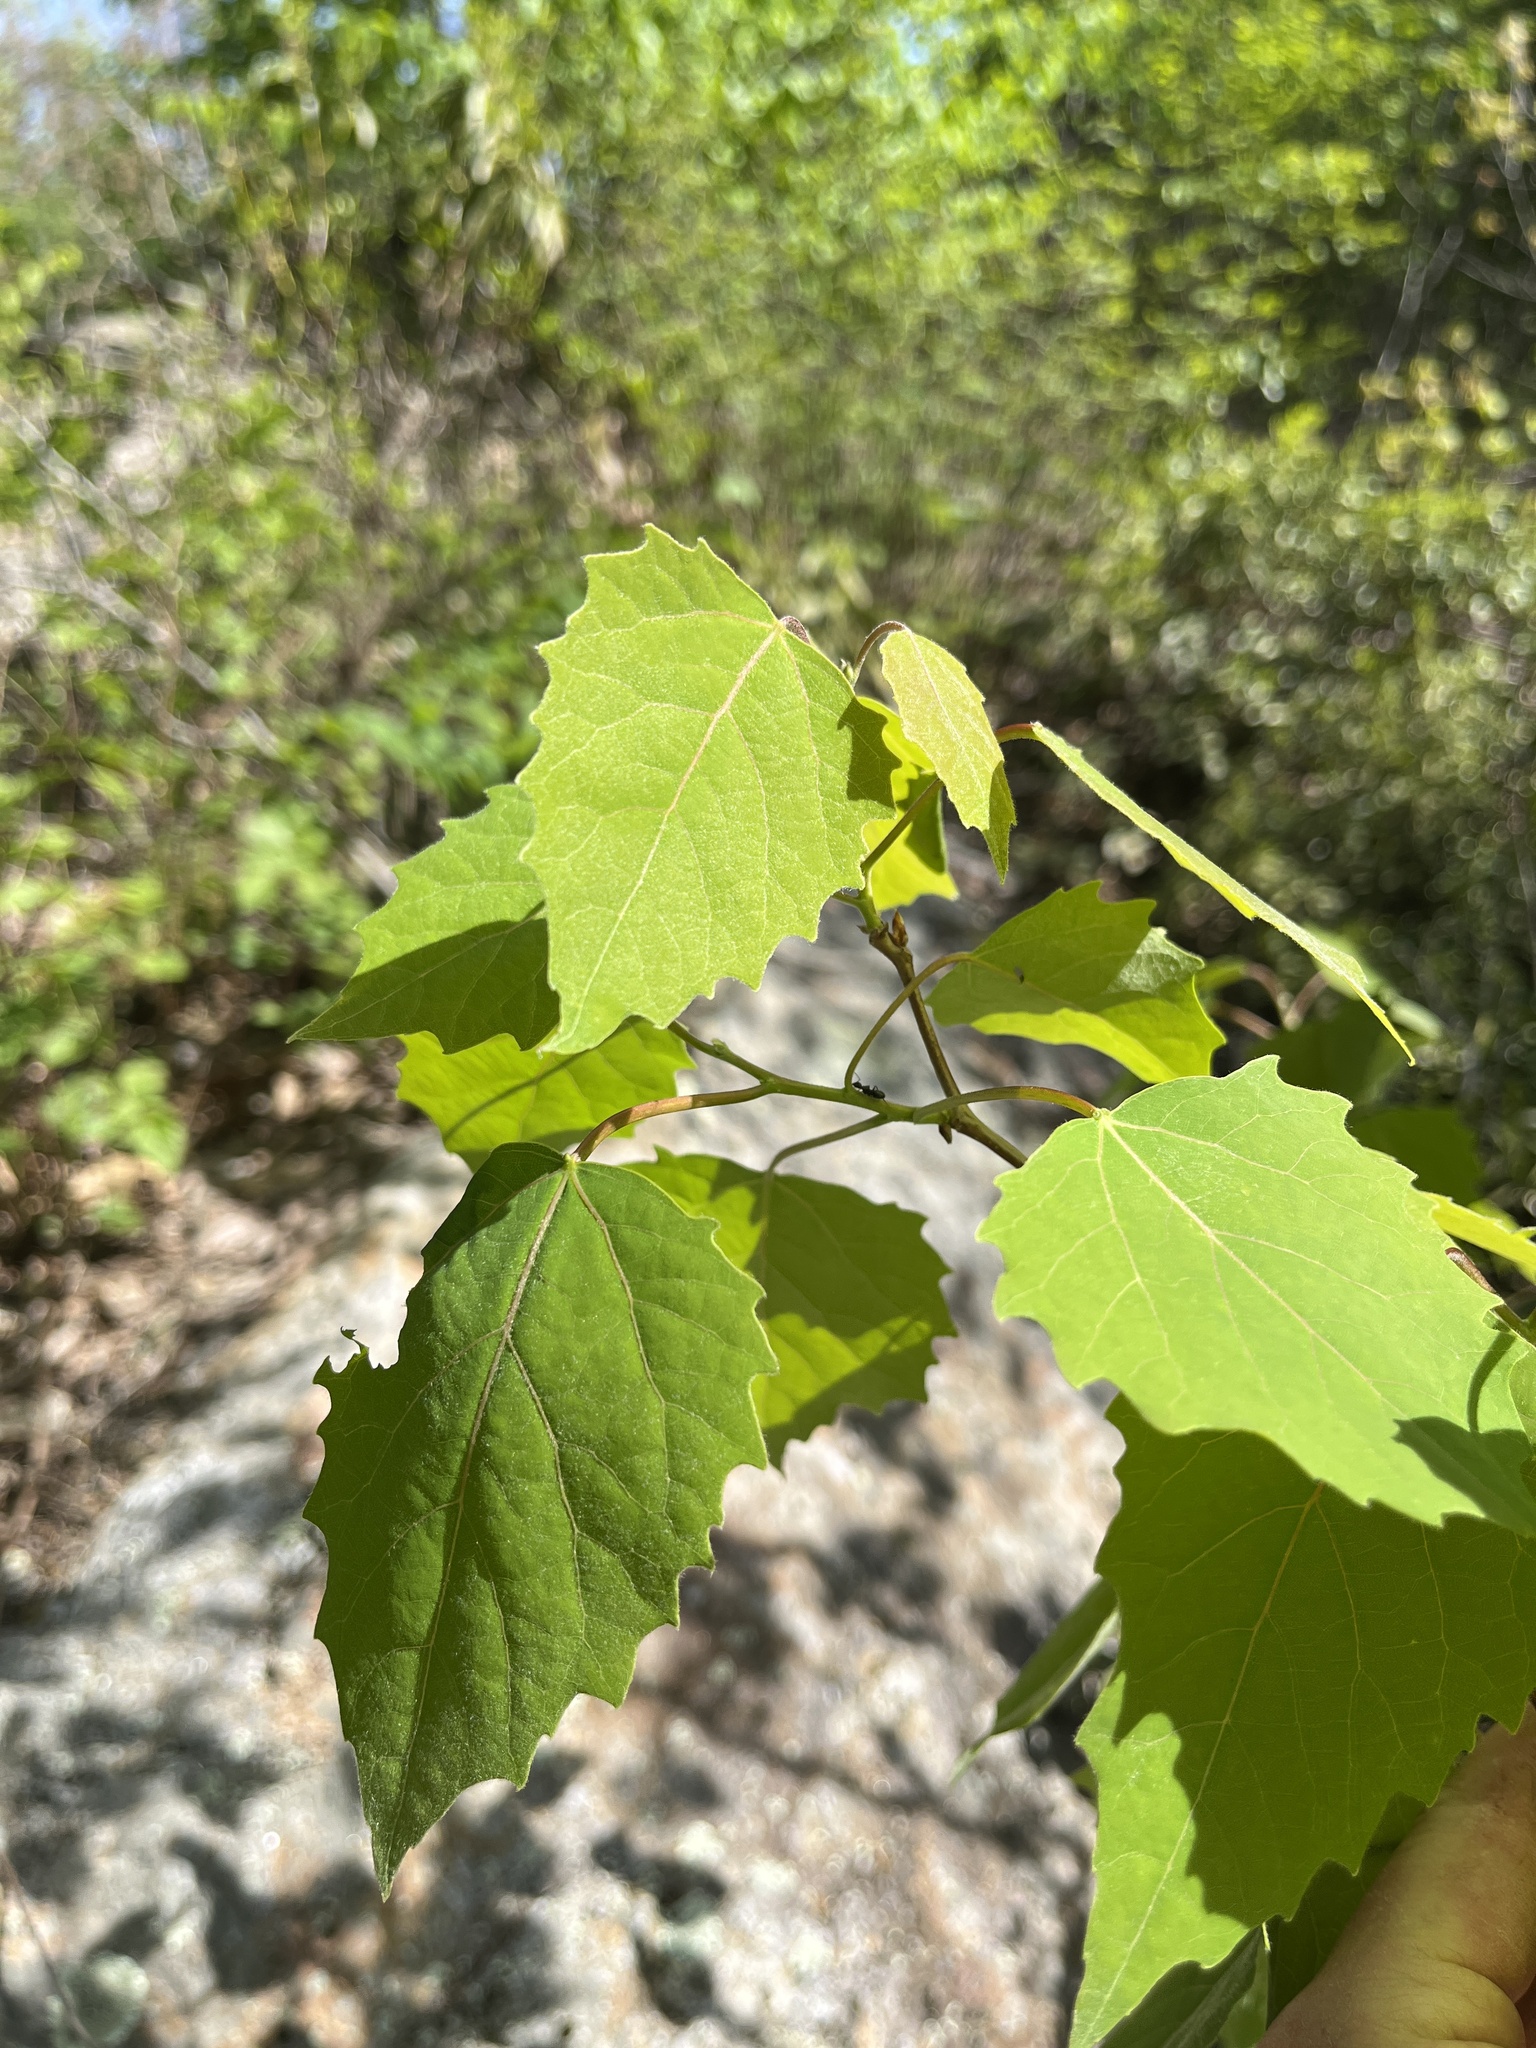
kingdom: Plantae
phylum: Tracheophyta
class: Magnoliopsida
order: Malpighiales
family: Salicaceae
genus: Populus
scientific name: Populus grandidentata
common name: Bigtooth aspen
